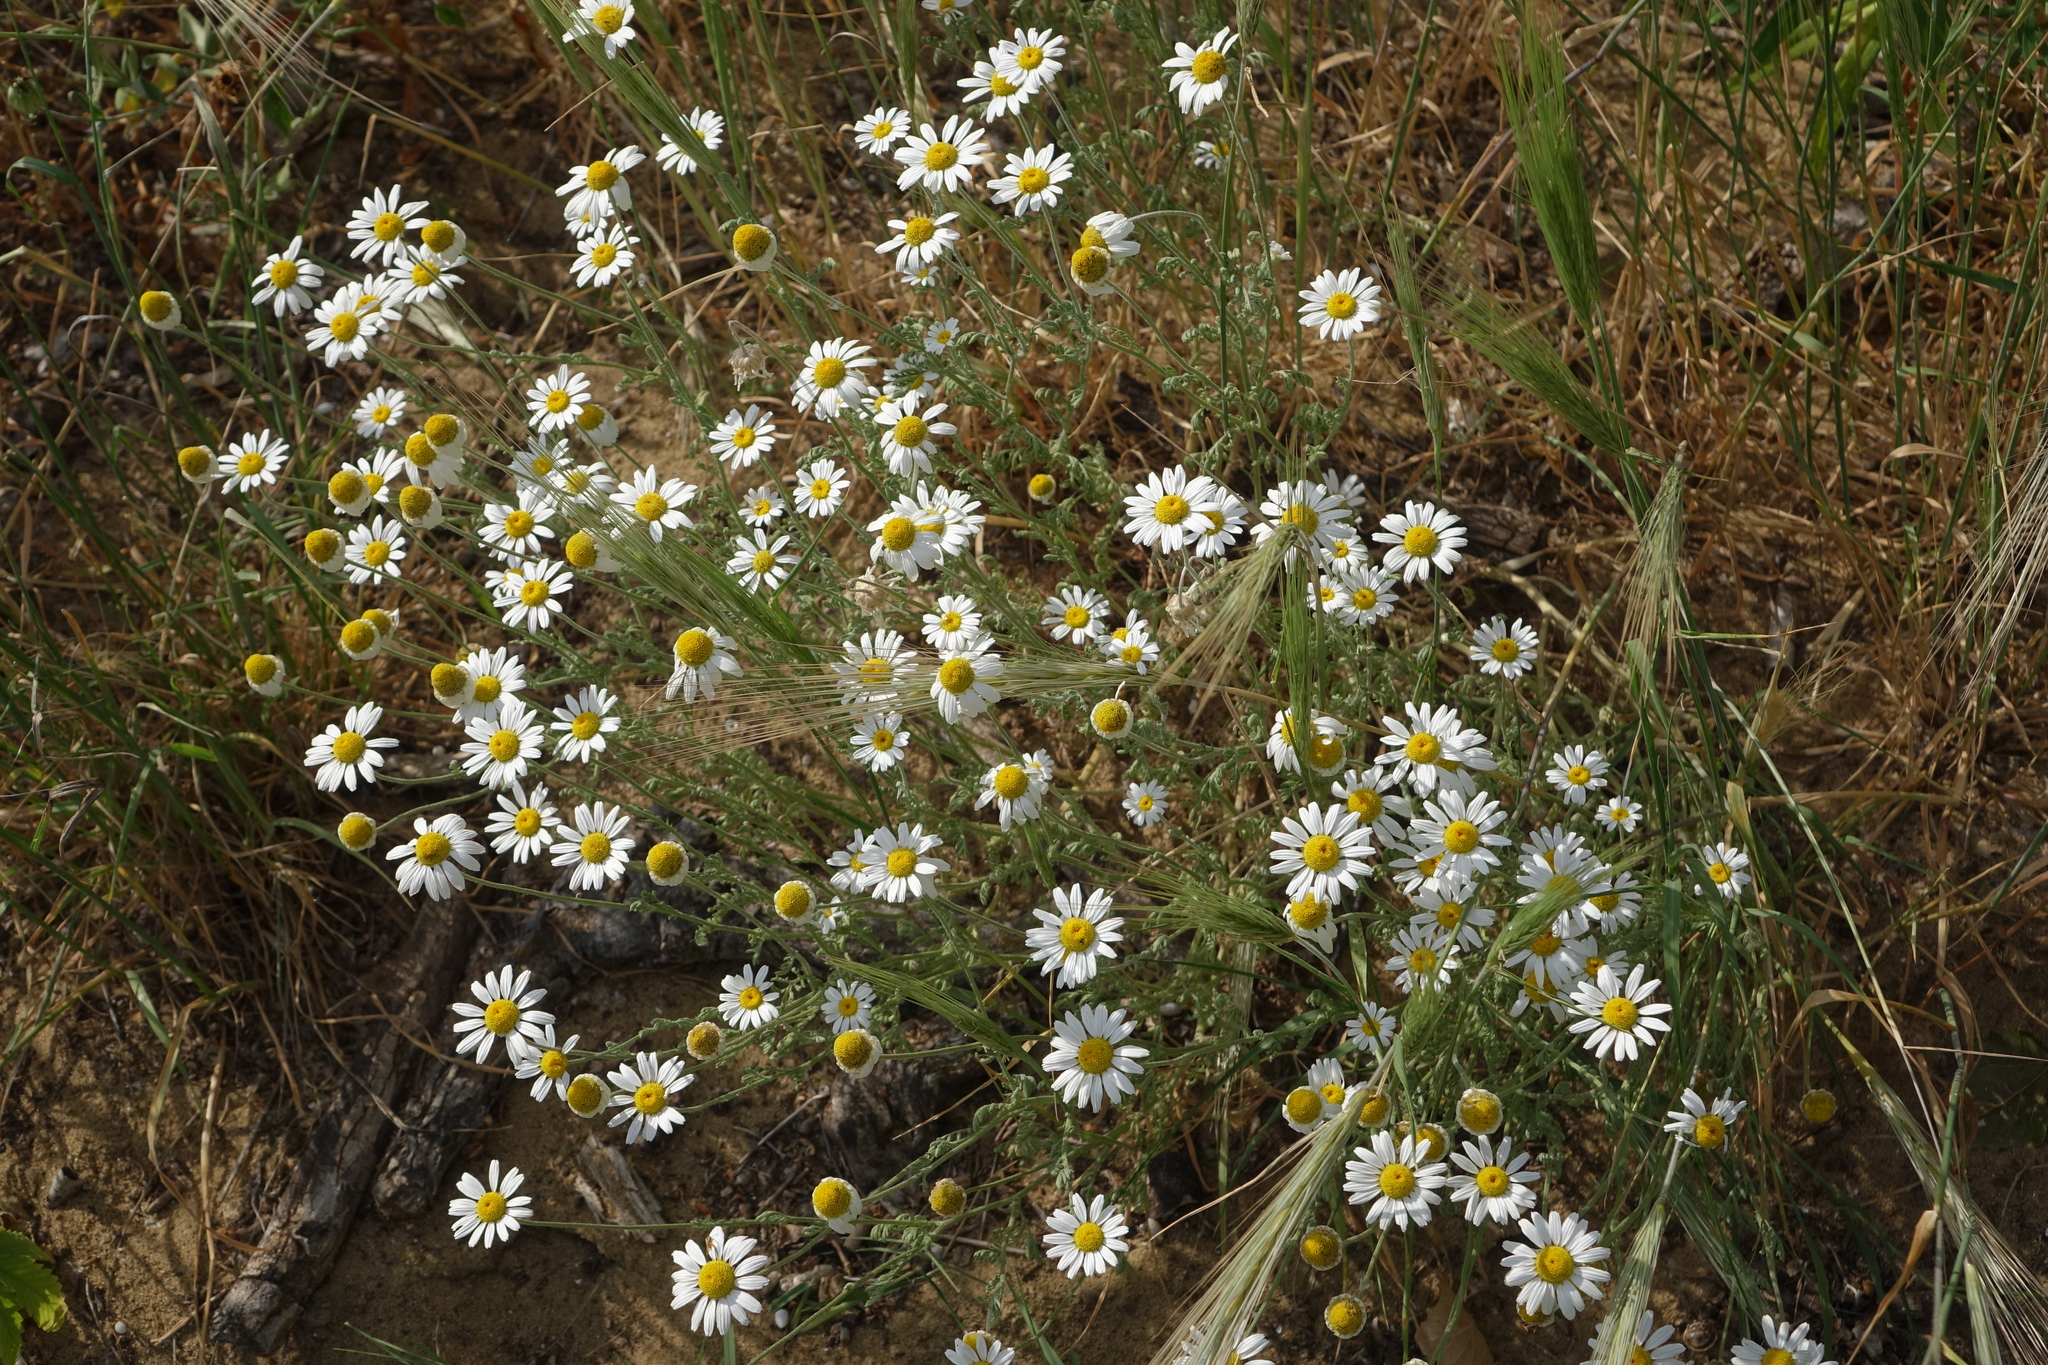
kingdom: Plantae
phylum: Tracheophyta
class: Magnoliopsida
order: Asterales
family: Asteraceae
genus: Anthemis
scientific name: Anthemis ruthenica
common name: Eastern chamomile
